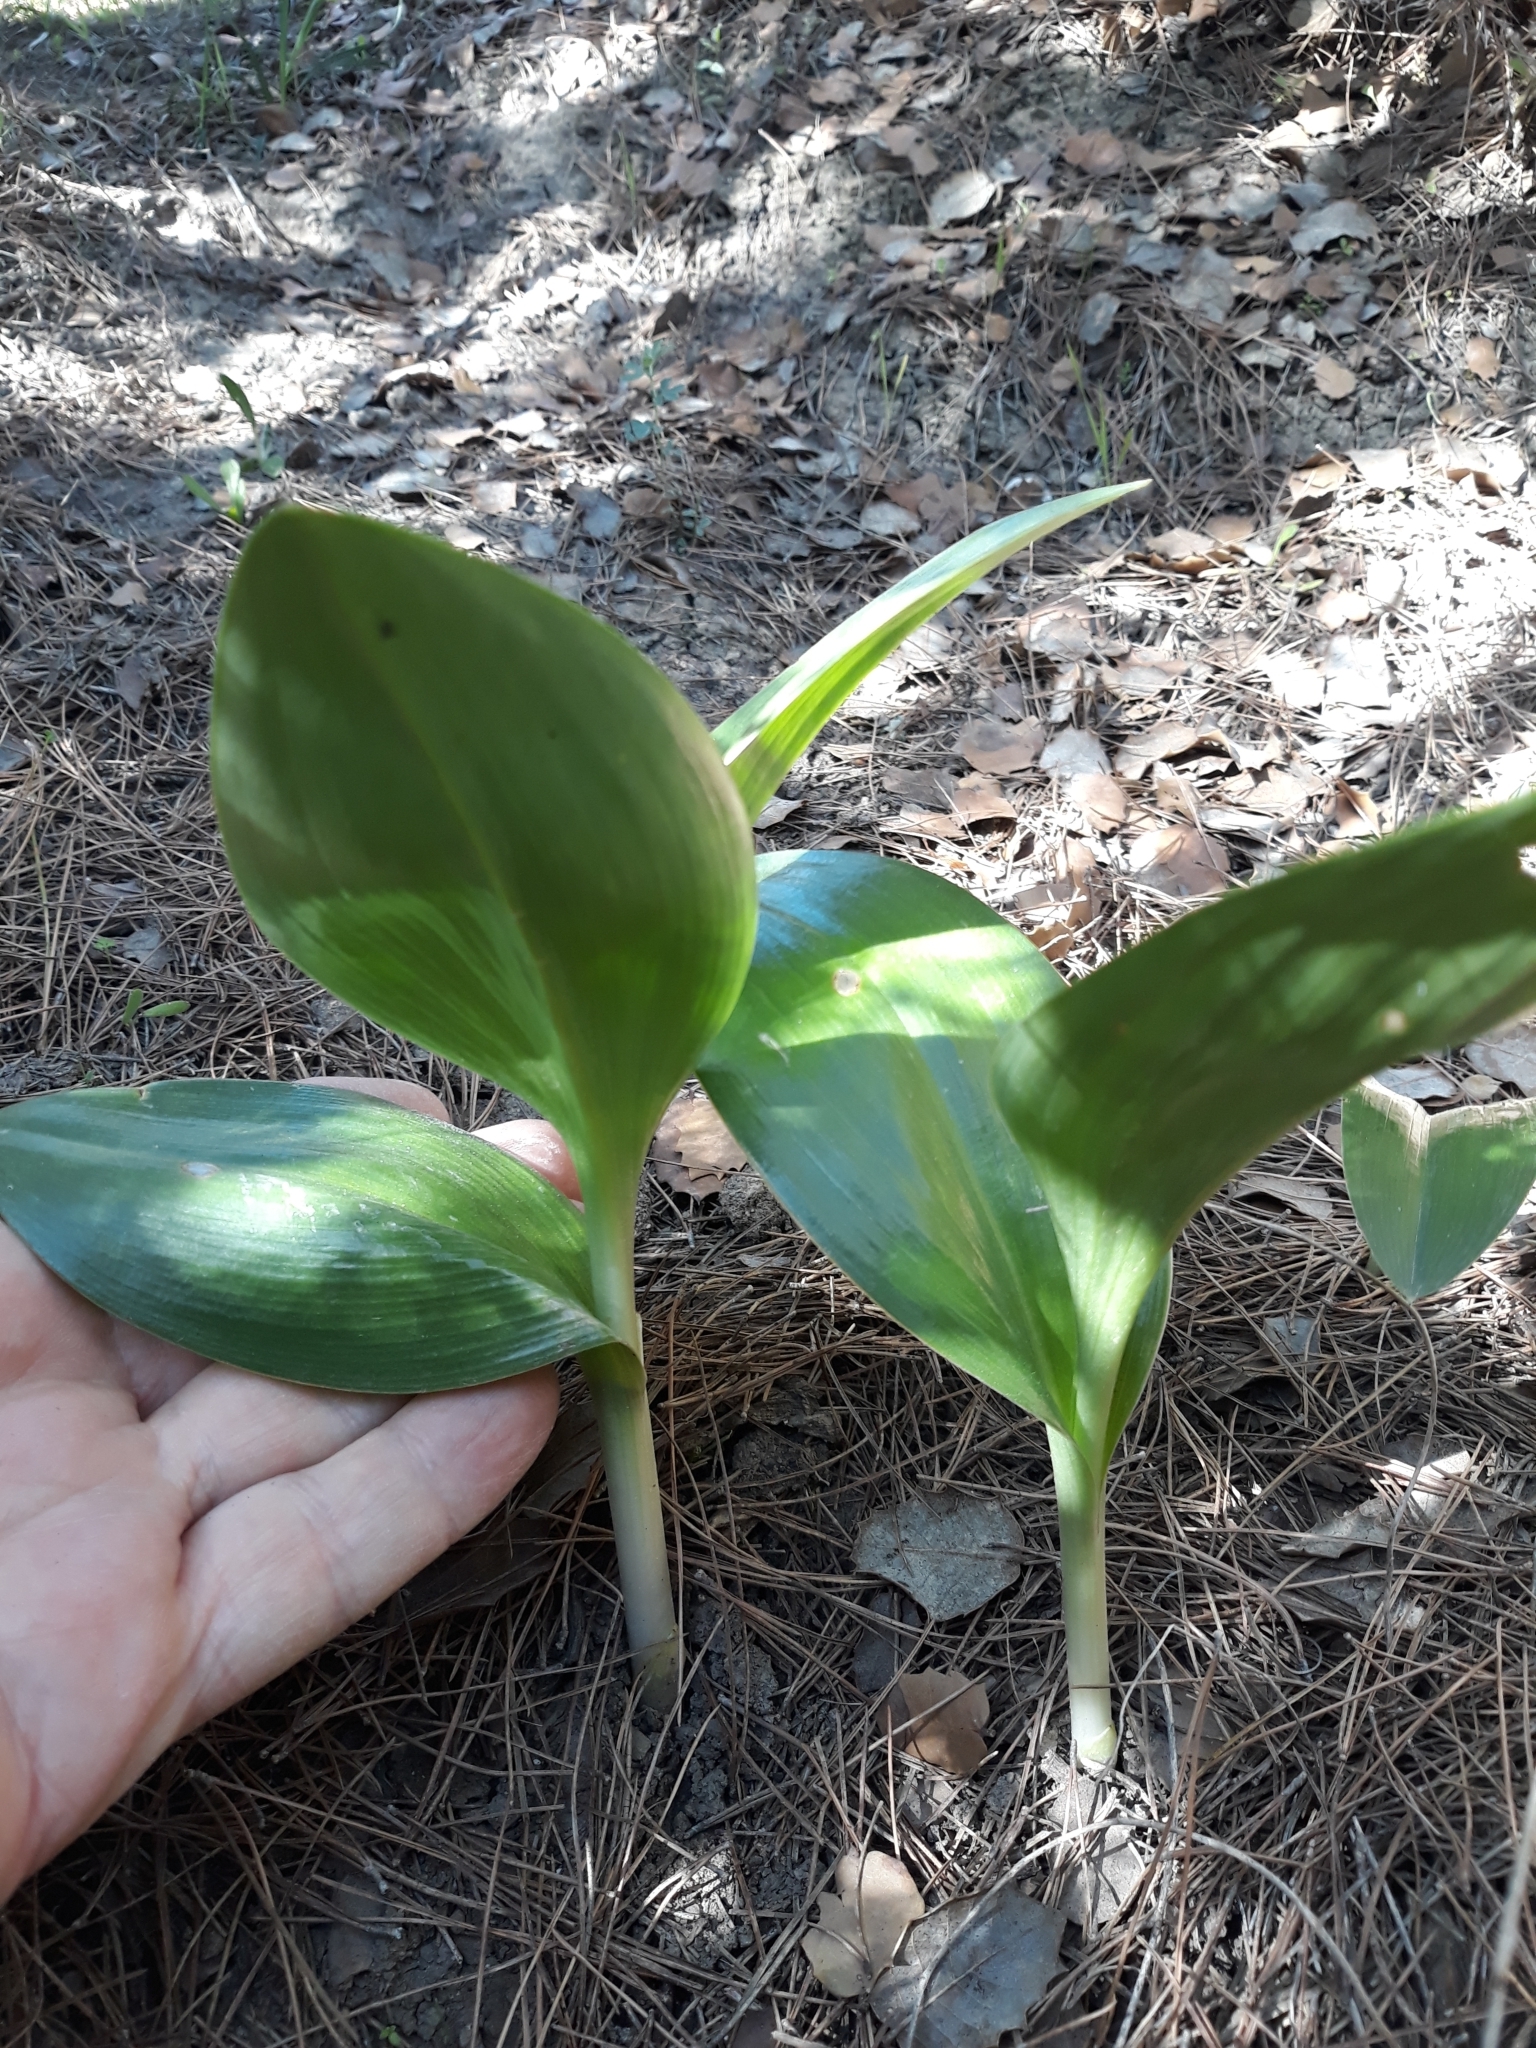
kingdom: Plantae
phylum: Tracheophyta
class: Liliopsida
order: Asparagales
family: Orchidaceae
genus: Himantoglossum
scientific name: Himantoglossum robertianum
